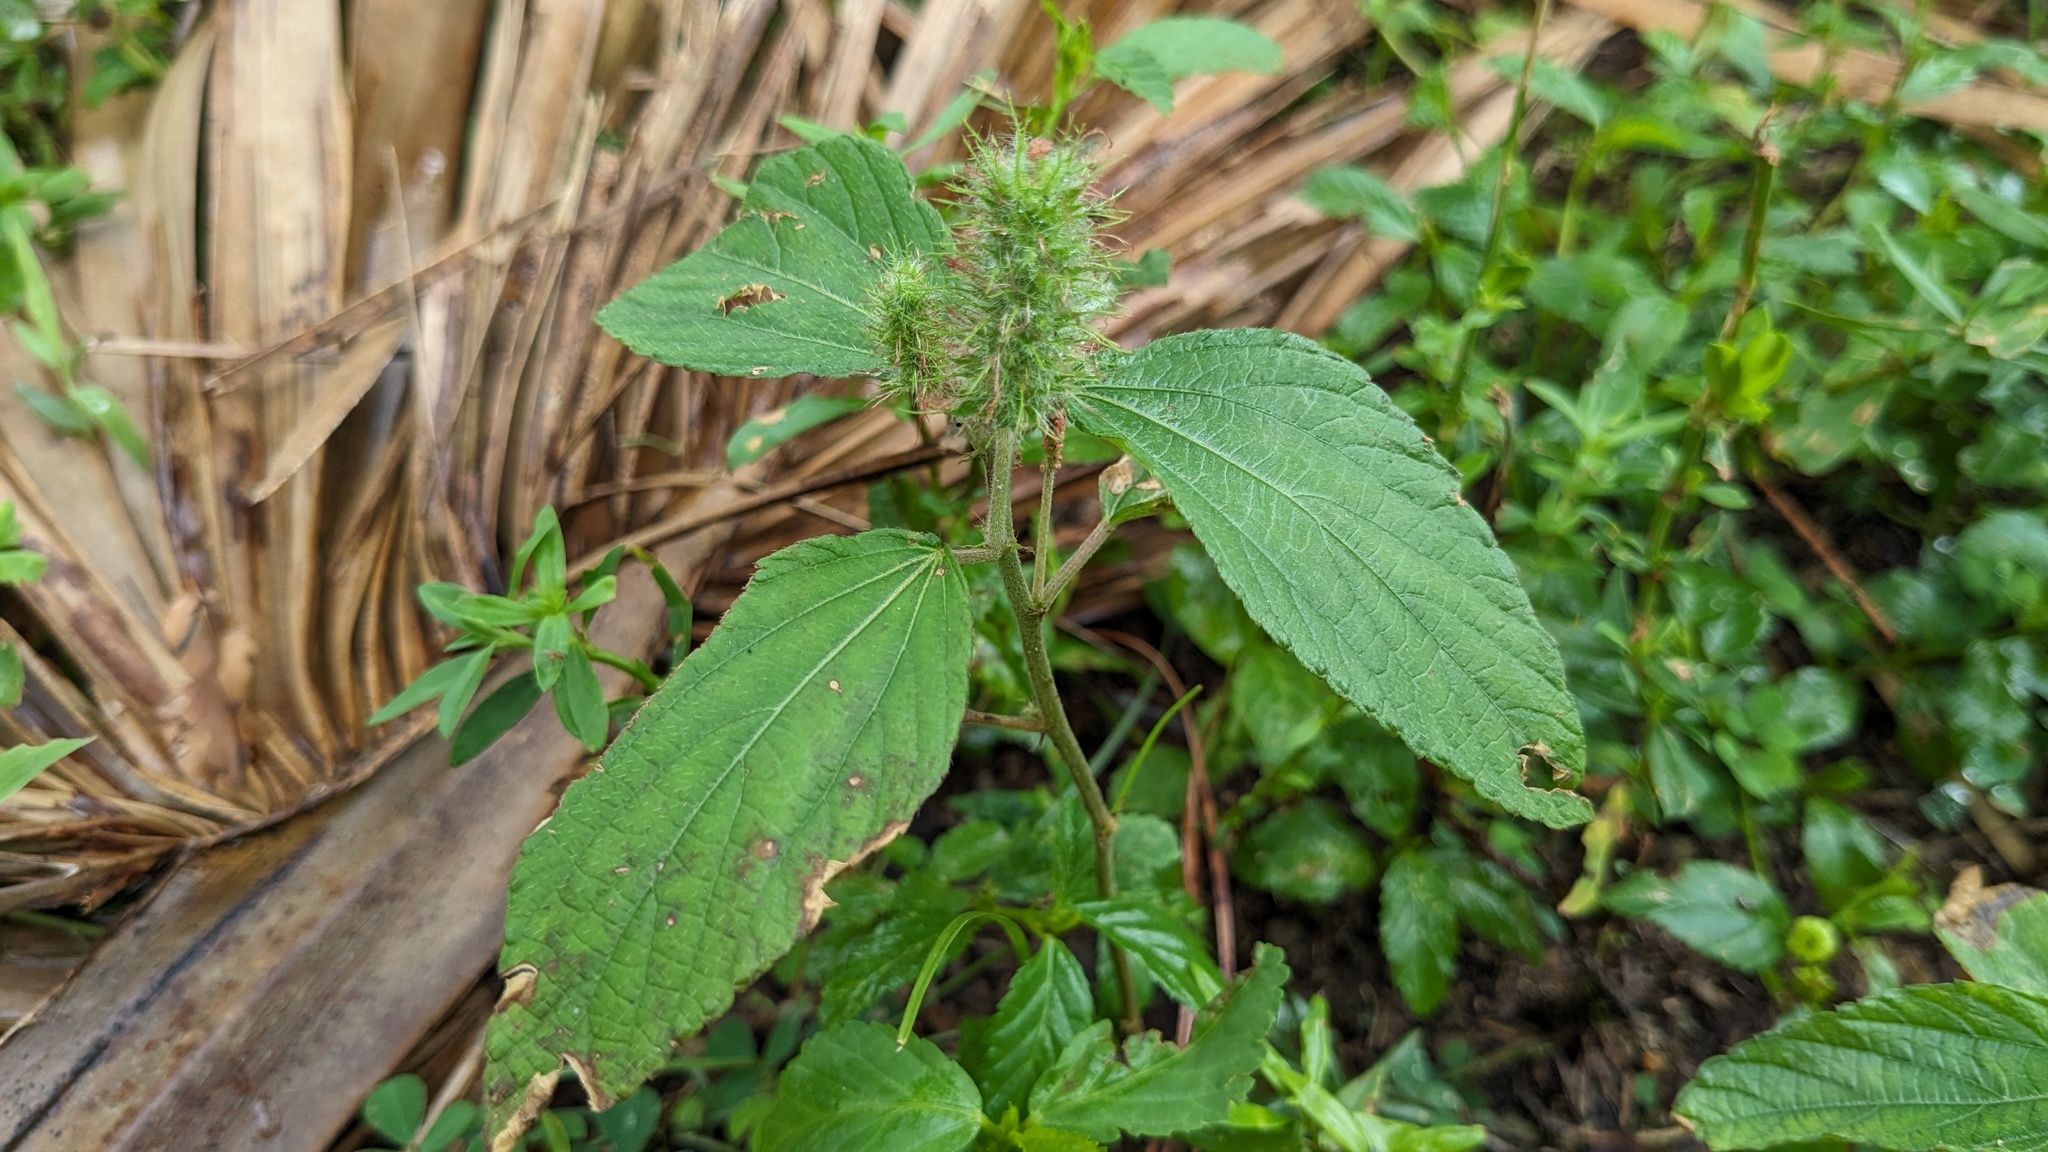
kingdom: Plantae
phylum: Tracheophyta
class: Magnoliopsida
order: Malpighiales
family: Euphorbiaceae
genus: Acalypha
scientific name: Acalypha arvensis
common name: Field copperleaf
